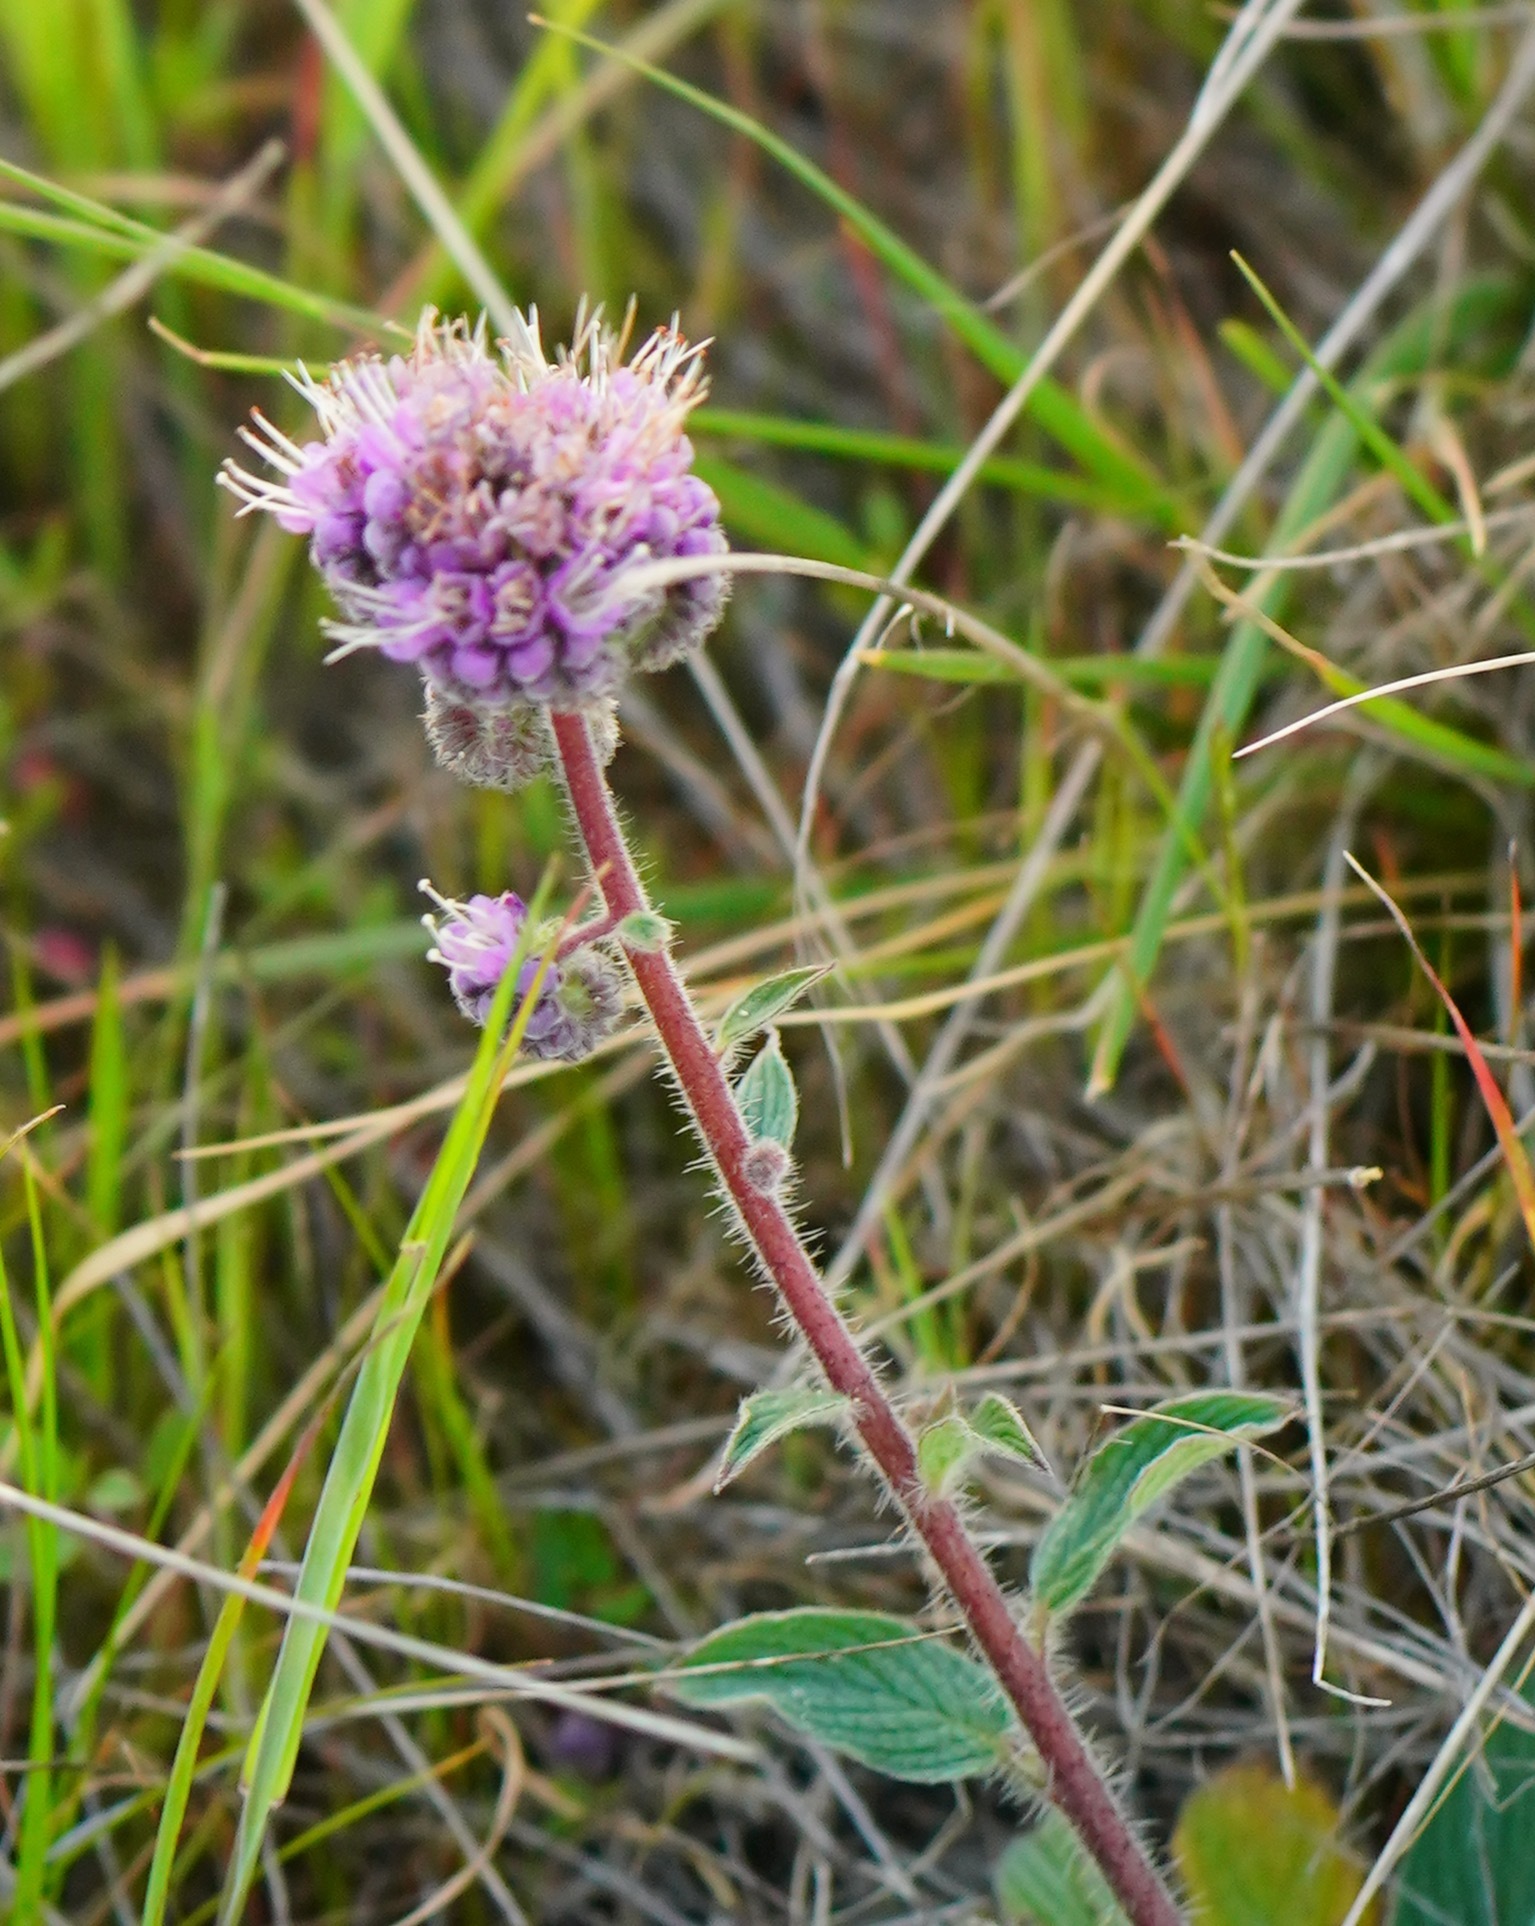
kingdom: Plantae
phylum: Tracheophyta
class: Magnoliopsida
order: Boraginales
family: Hydrophyllaceae
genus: Phacelia
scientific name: Phacelia californica
